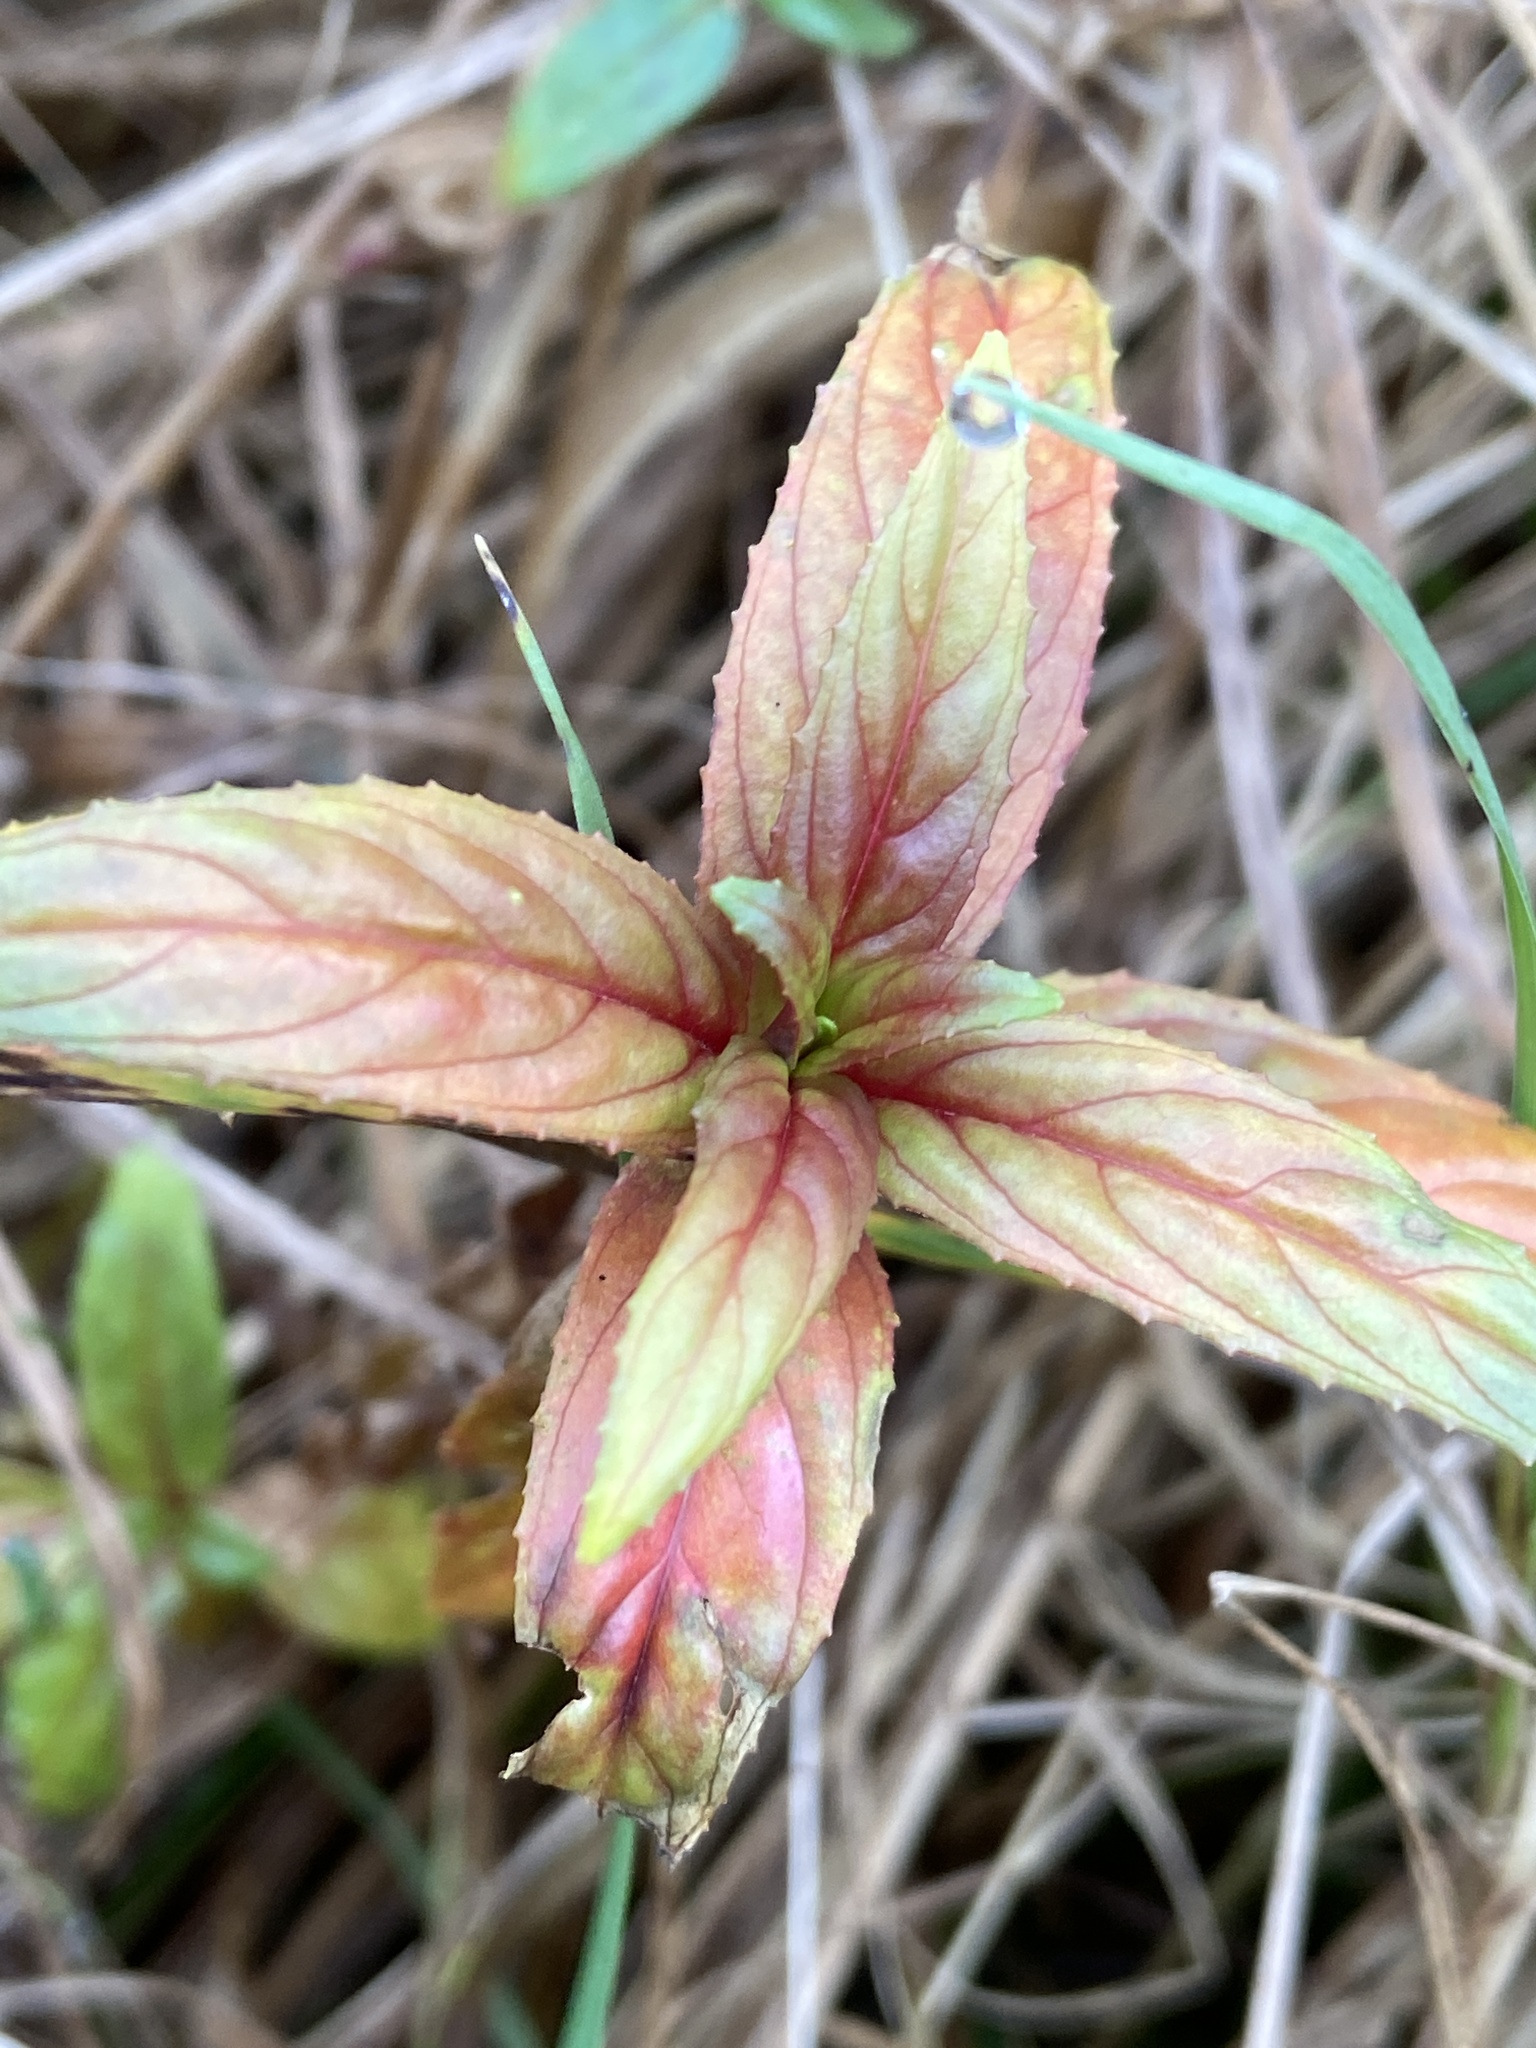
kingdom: Plantae
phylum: Tracheophyta
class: Magnoliopsida
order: Myrtales
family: Onagraceae
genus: Epilobium
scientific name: Epilobium ciliatum
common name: American willowherb
